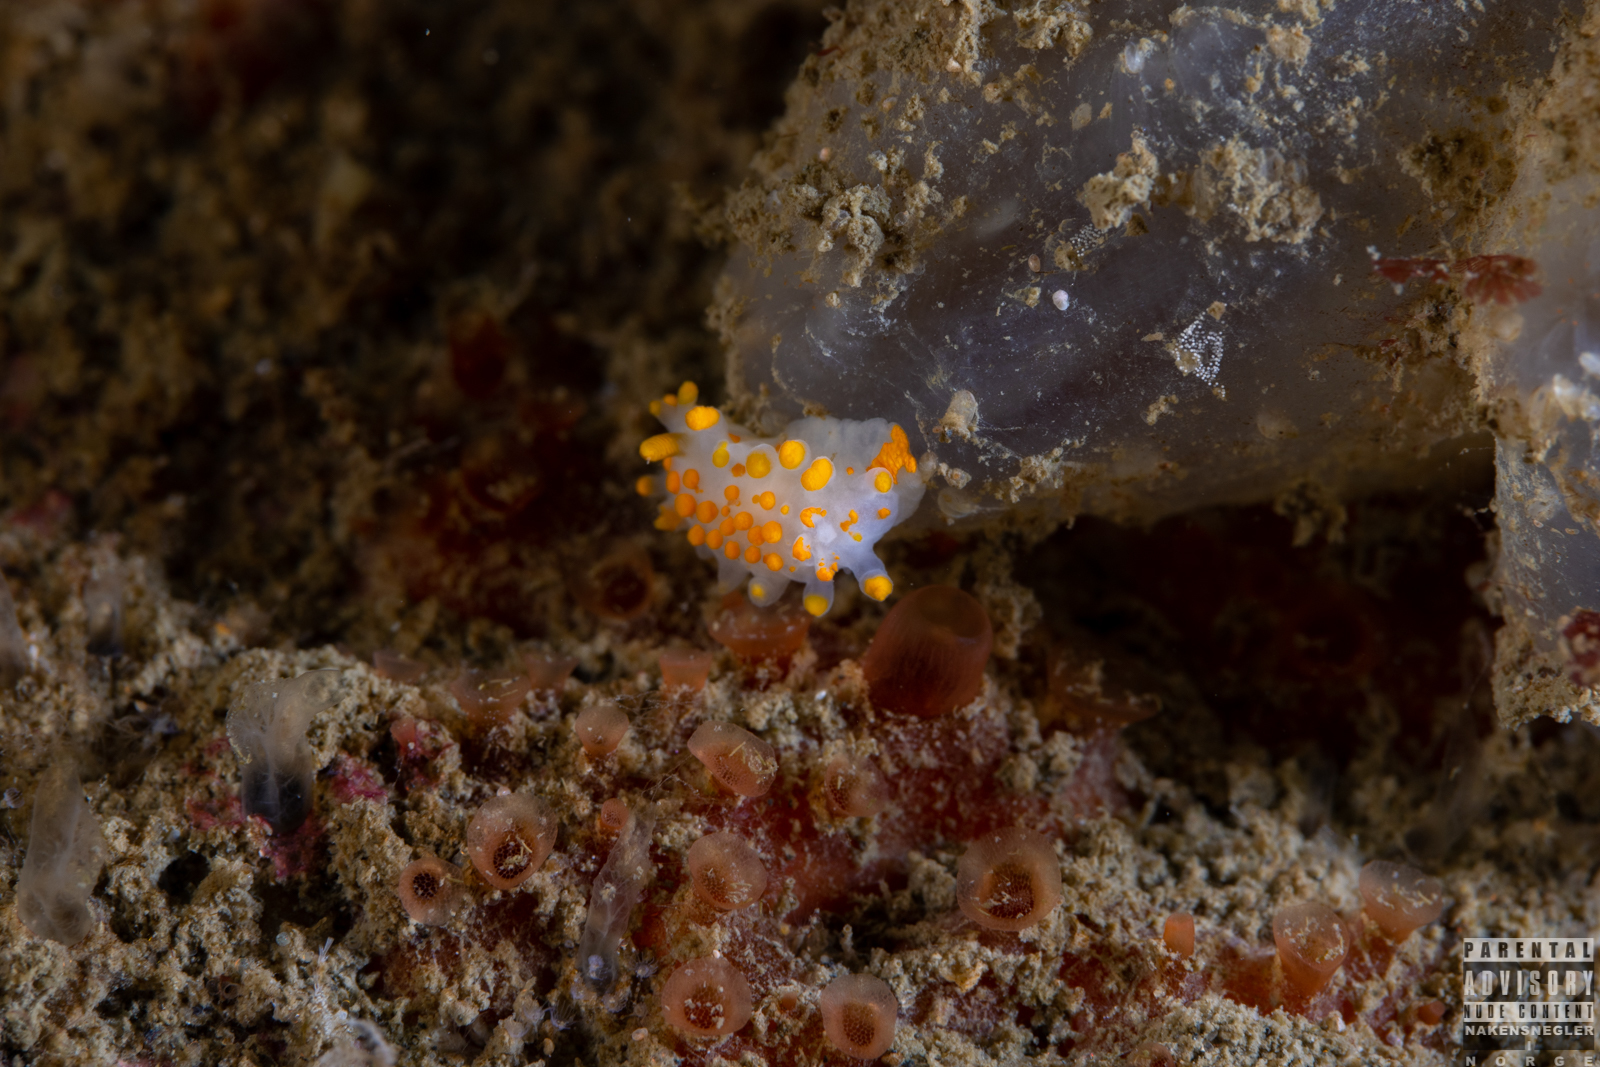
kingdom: Animalia
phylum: Mollusca
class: Gastropoda
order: Nudibranchia
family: Polyceridae
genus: Limacia
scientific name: Limacia clavigera
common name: Orange-clubbed sea slug
